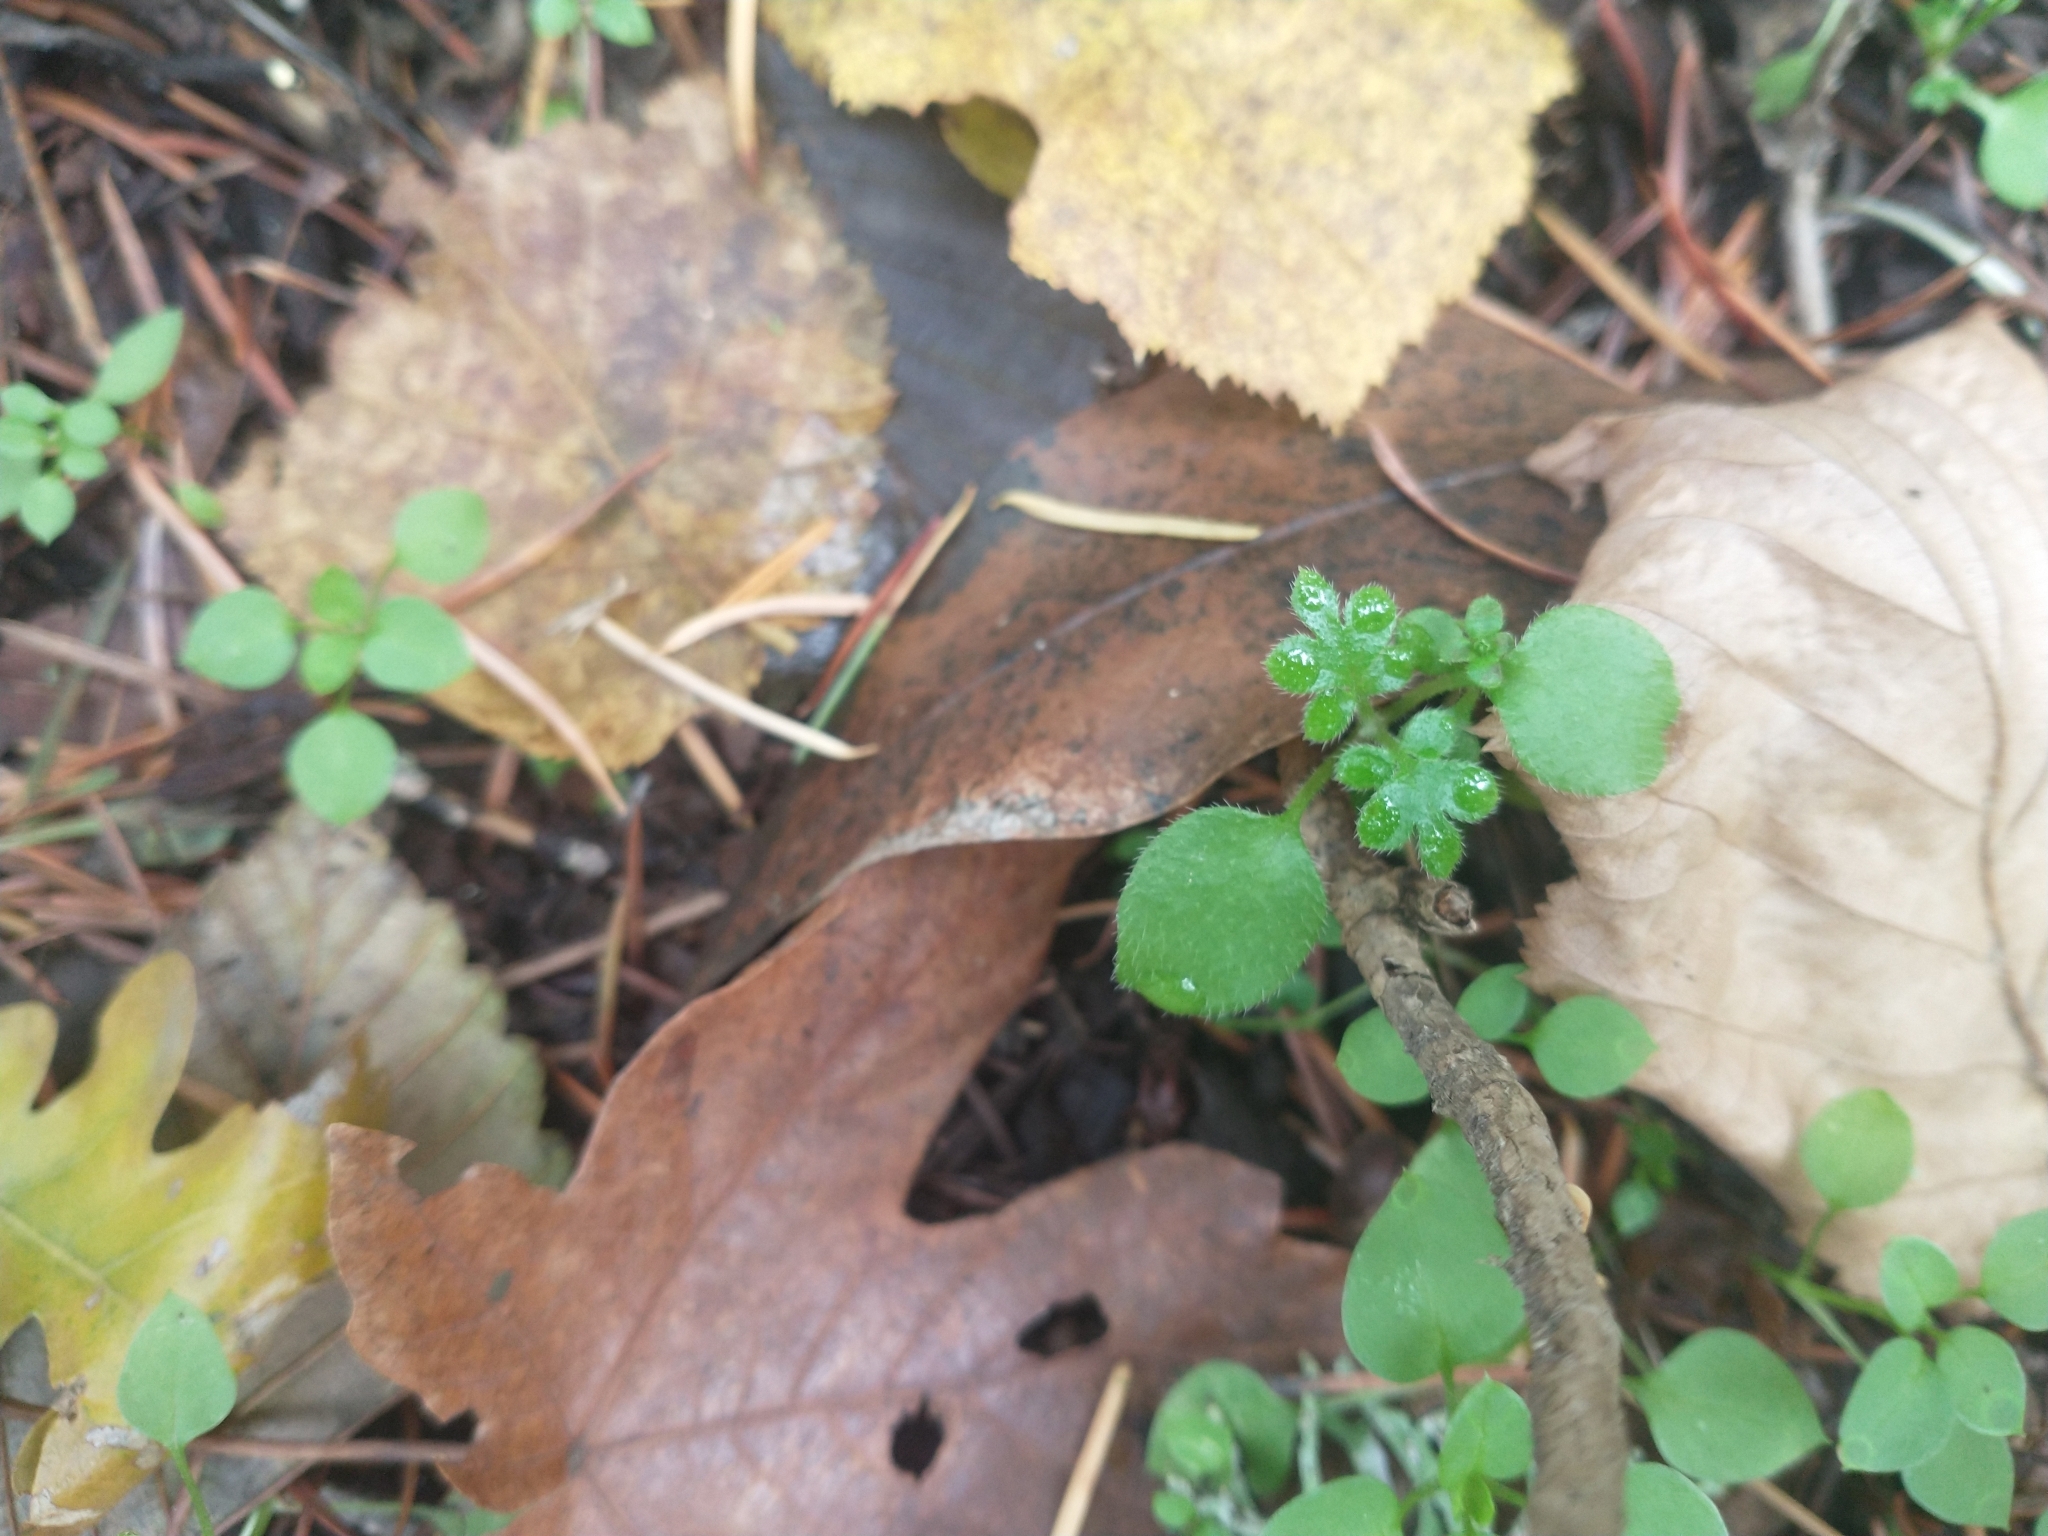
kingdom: Plantae
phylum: Tracheophyta
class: Magnoliopsida
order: Boraginales
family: Hydrophyllaceae
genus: Nemophila
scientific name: Nemophila parviflora
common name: Small-flowered baby-blue-eyes
